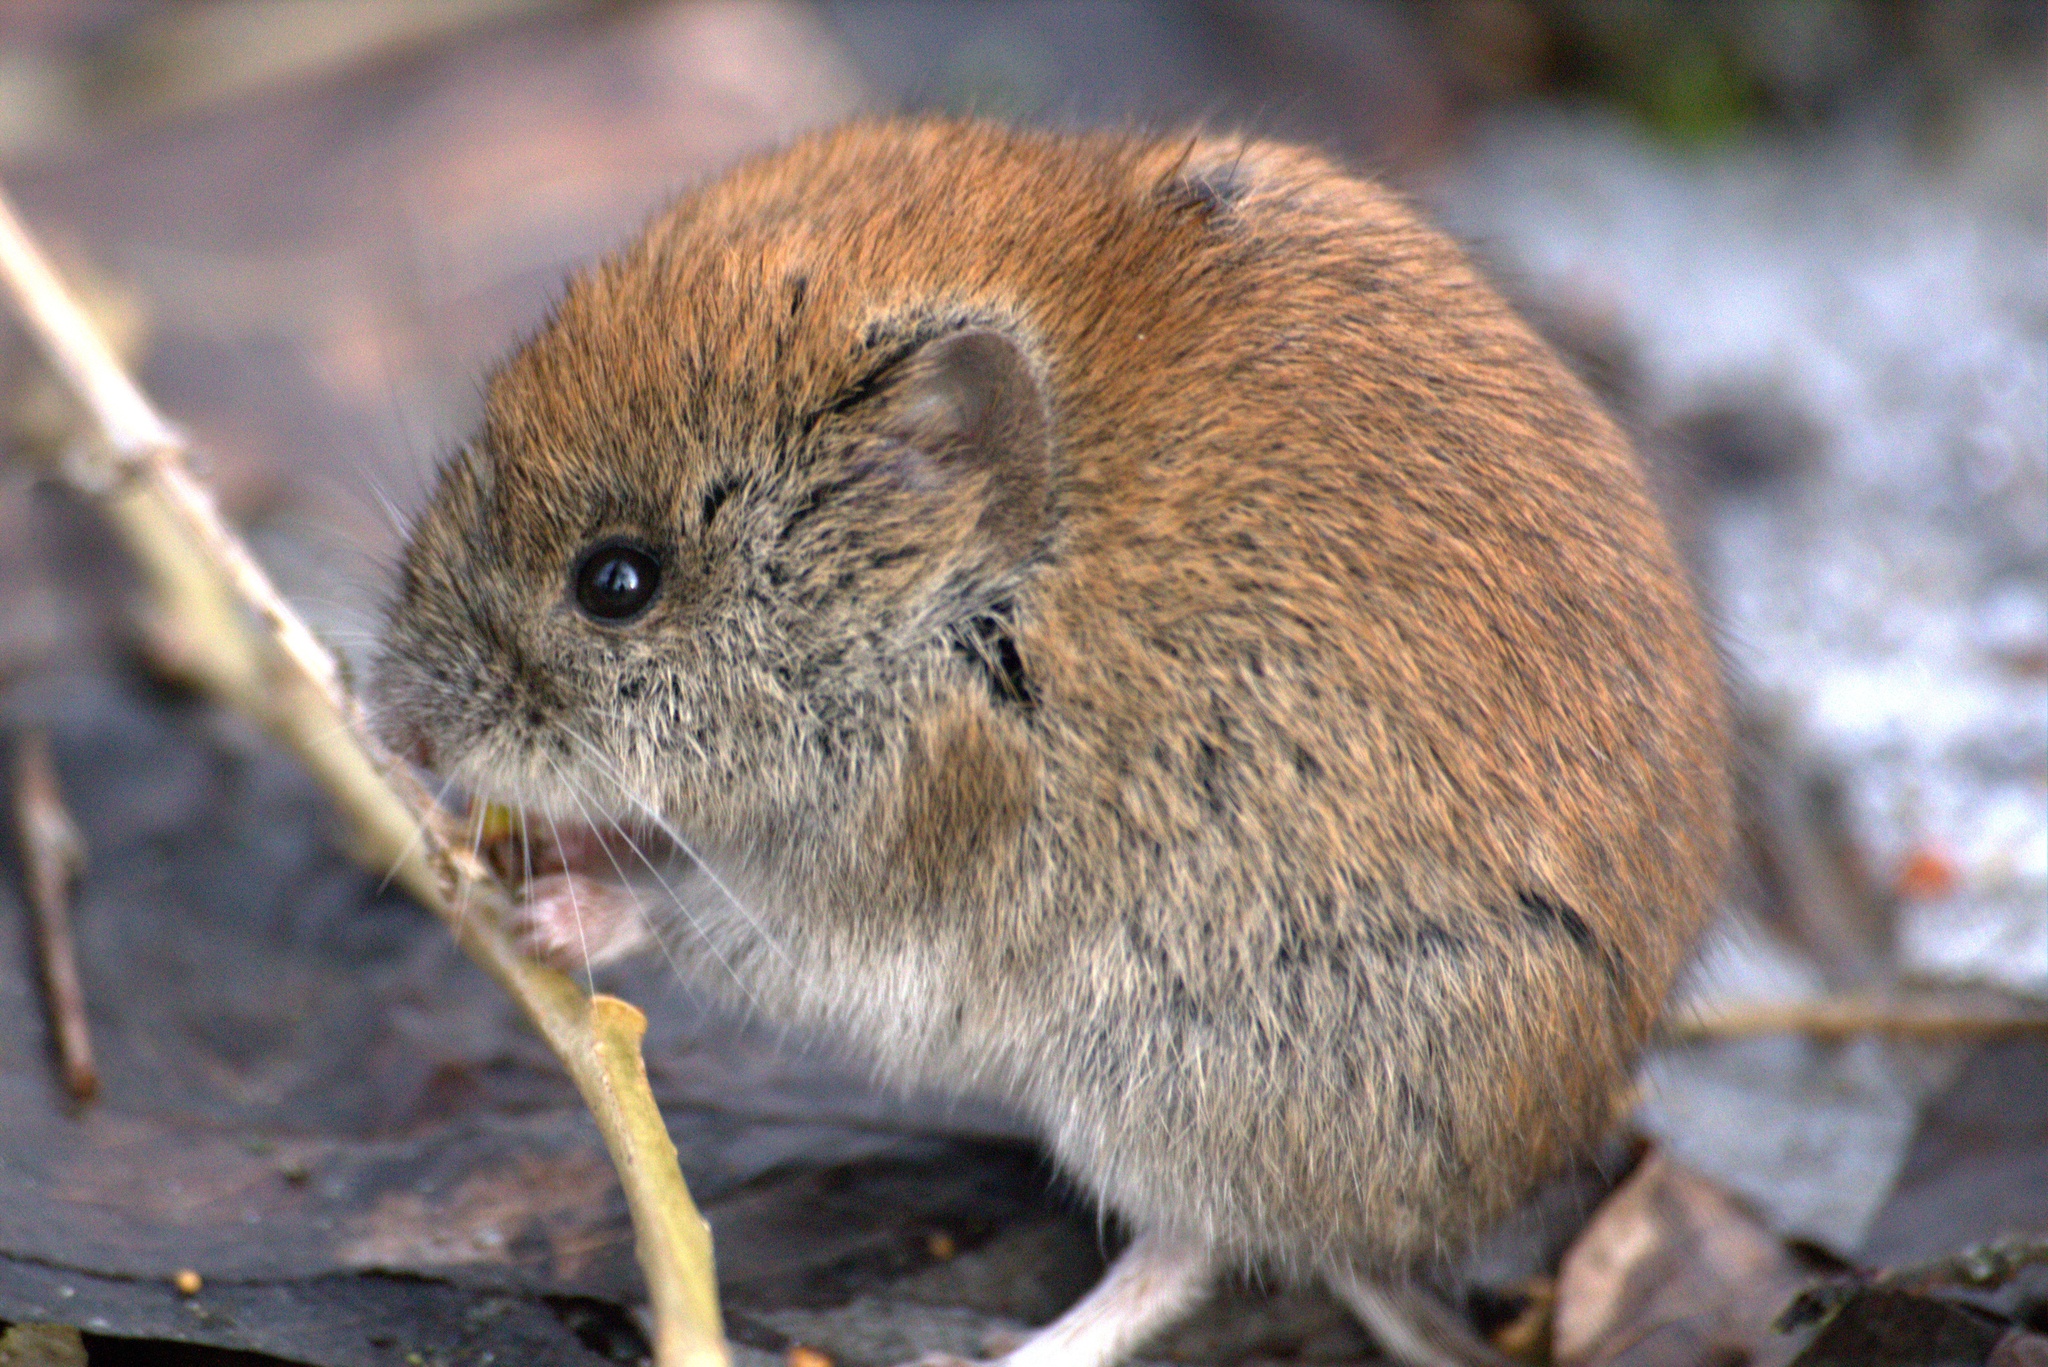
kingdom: Animalia
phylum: Chordata
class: Mammalia
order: Rodentia
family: Cricetidae
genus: Myodes
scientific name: Myodes glareolus
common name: Bank vole
